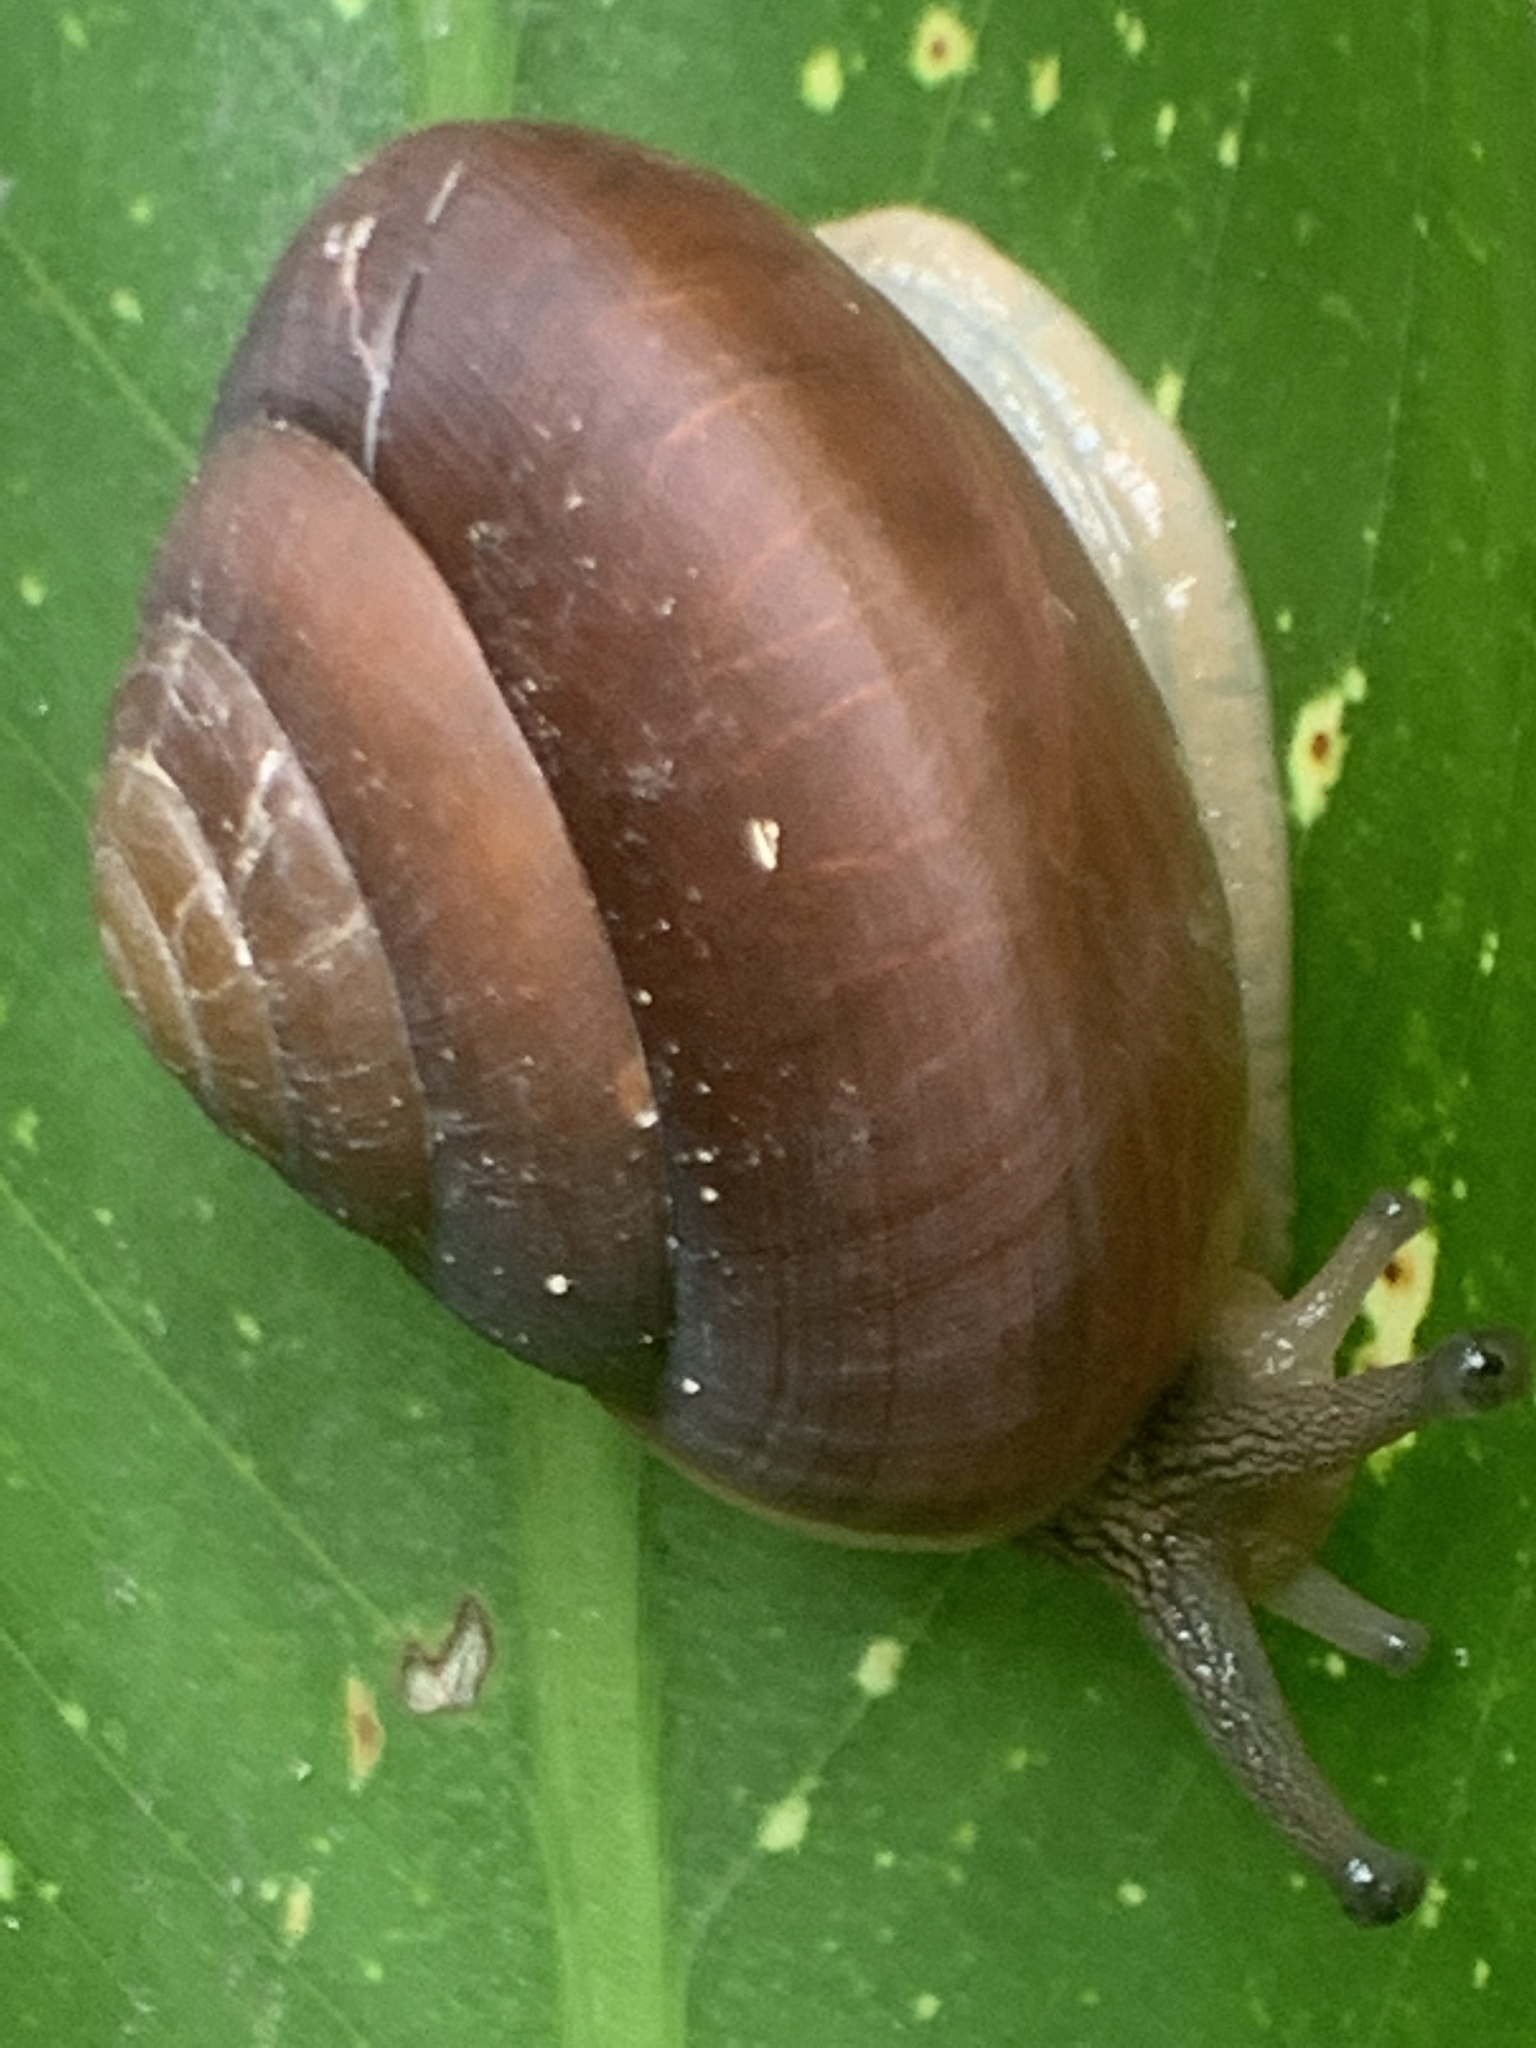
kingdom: Animalia
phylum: Mollusca
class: Gastropoda
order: Stylommatophora
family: Dyakiidae
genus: Quantula
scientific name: Quantula striata
